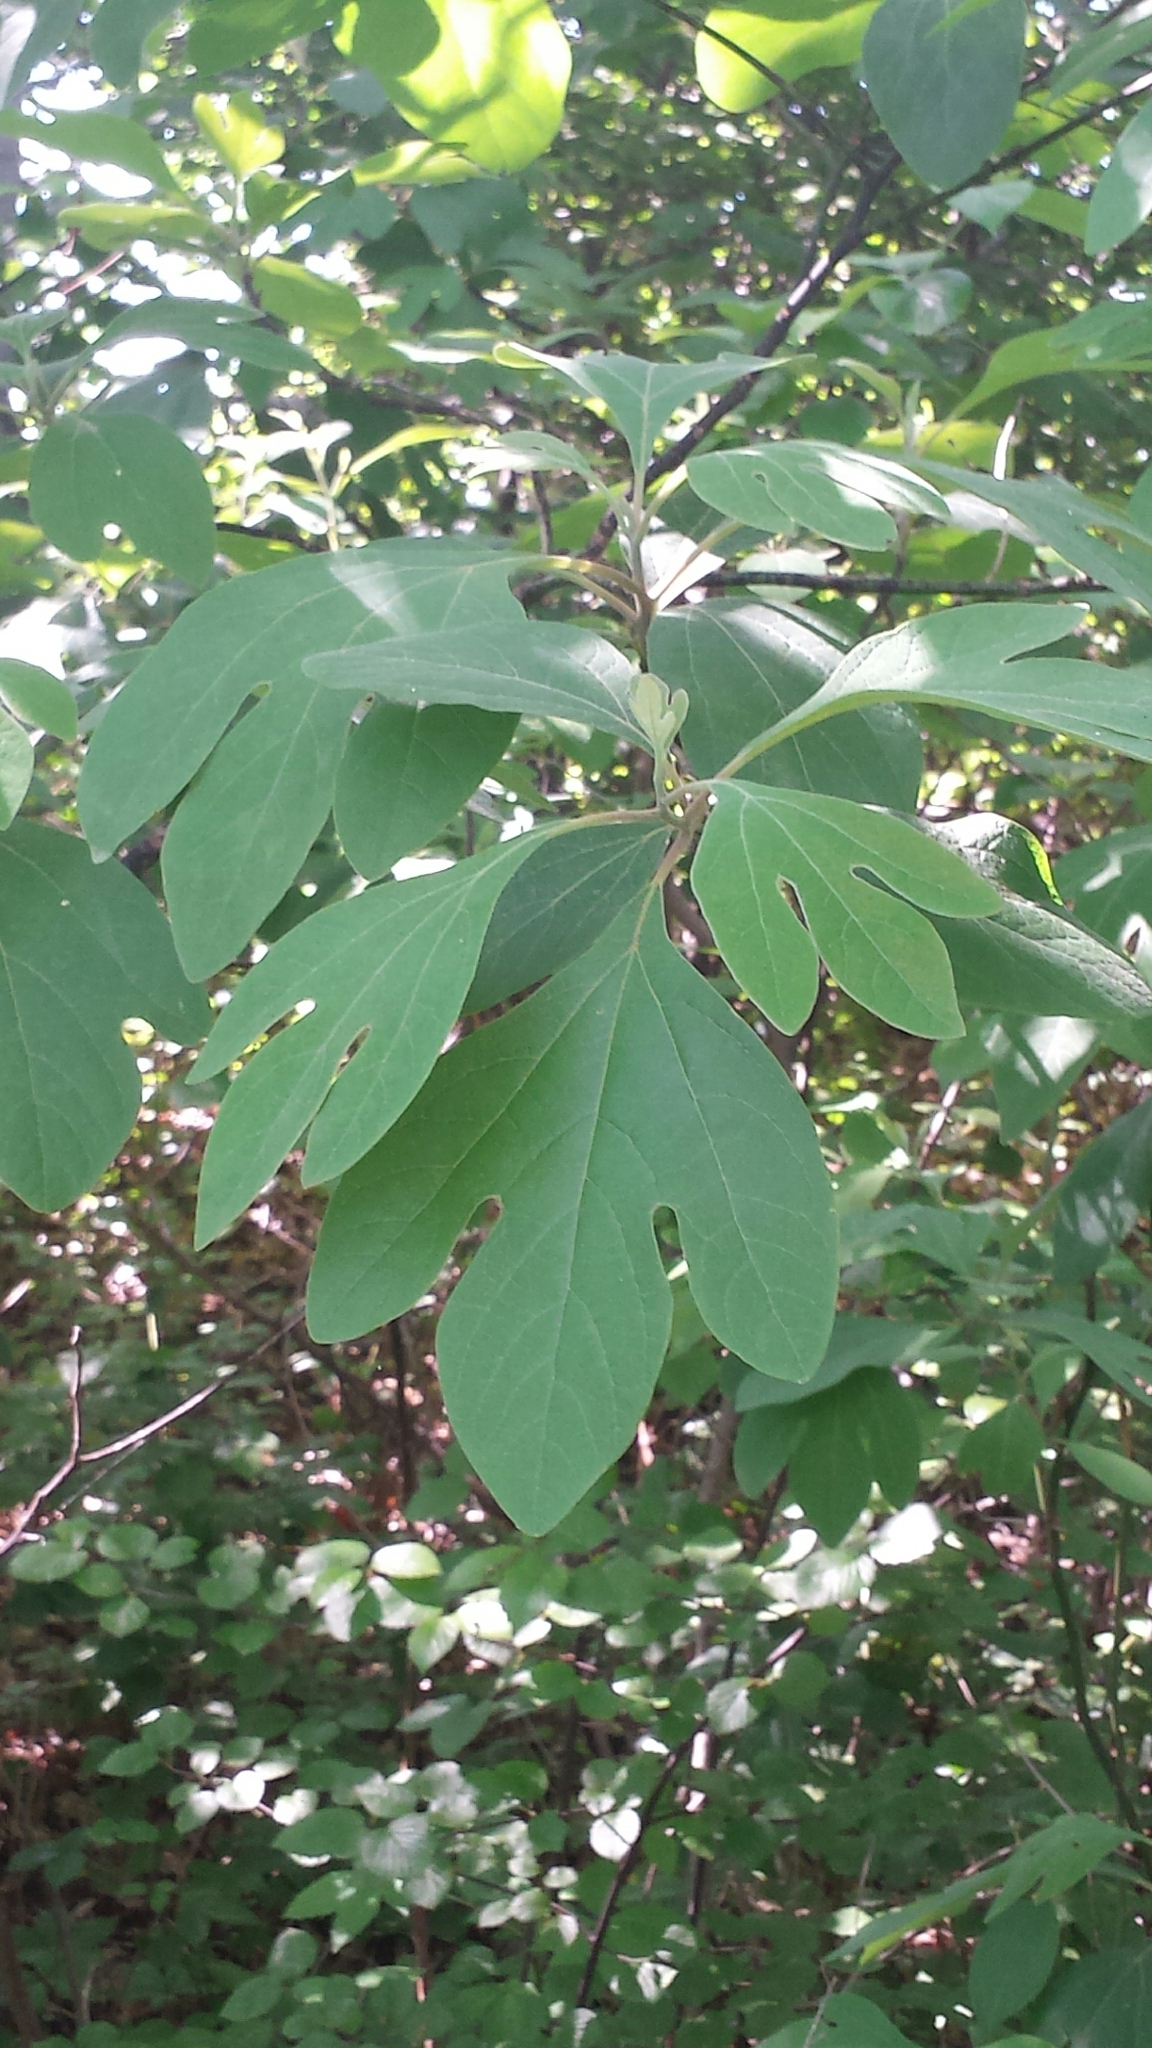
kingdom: Plantae
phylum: Tracheophyta
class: Magnoliopsida
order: Laurales
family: Lauraceae
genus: Sassafras
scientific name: Sassafras albidum
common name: Sassafras
